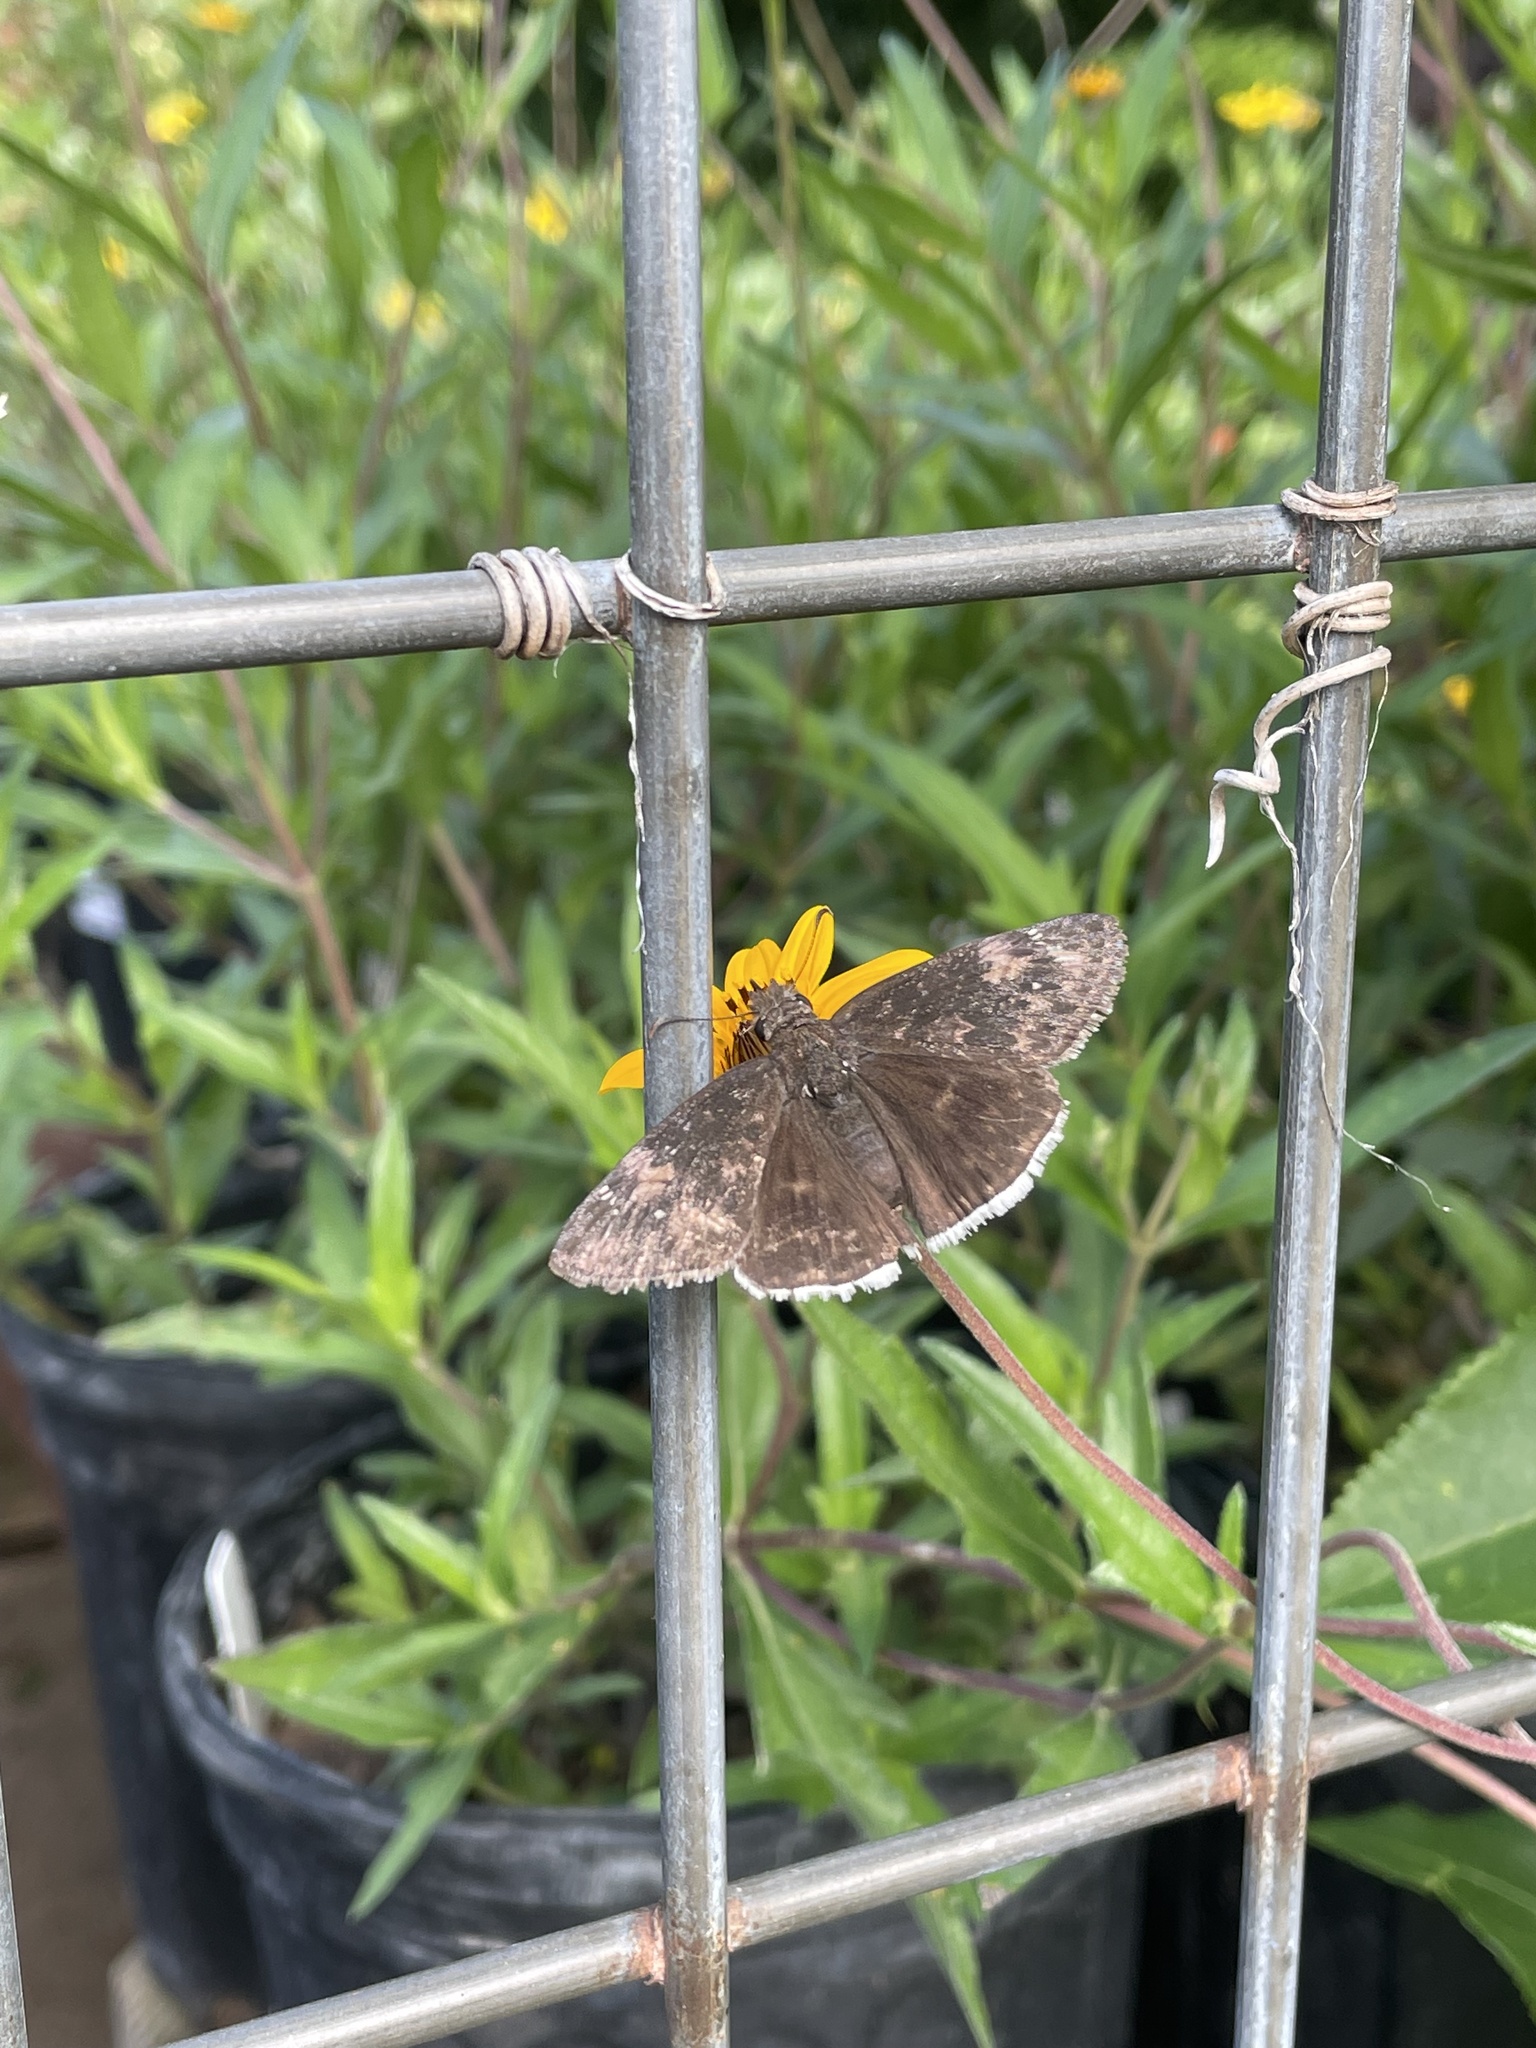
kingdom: Animalia
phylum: Arthropoda
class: Insecta
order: Lepidoptera
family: Hesperiidae
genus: Erynnis
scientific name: Erynnis funeralis
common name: Funereal duskywing
